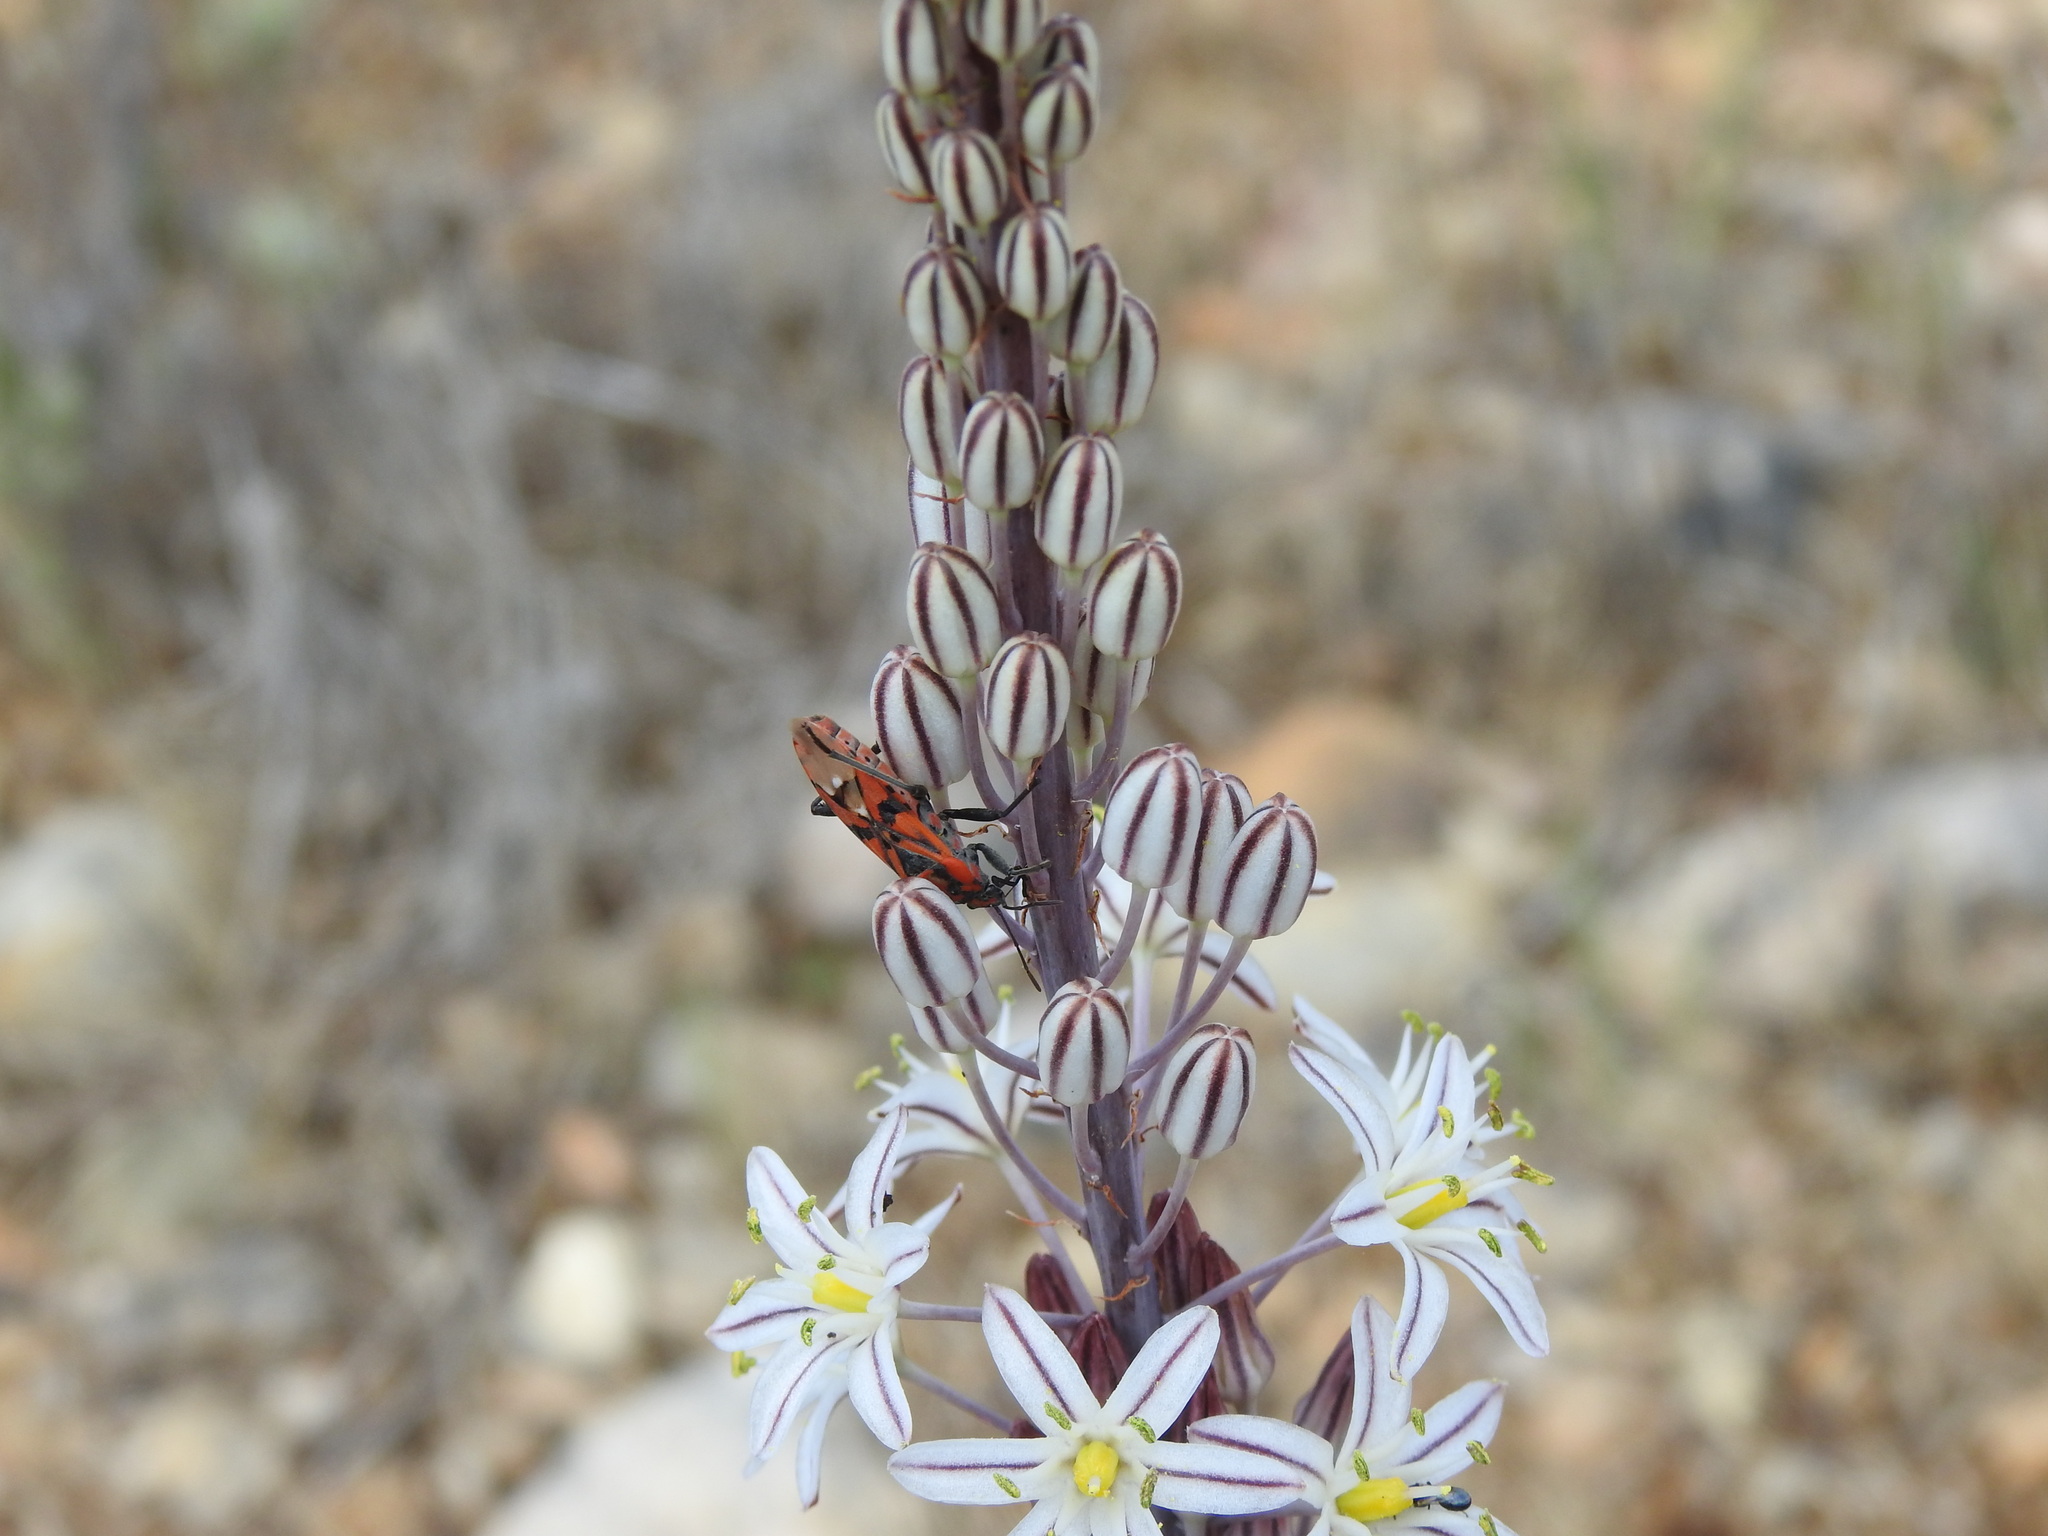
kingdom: Animalia
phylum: Arthropoda
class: Insecta
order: Hemiptera
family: Lygaeidae
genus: Spilostethus
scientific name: Spilostethus pandurus
